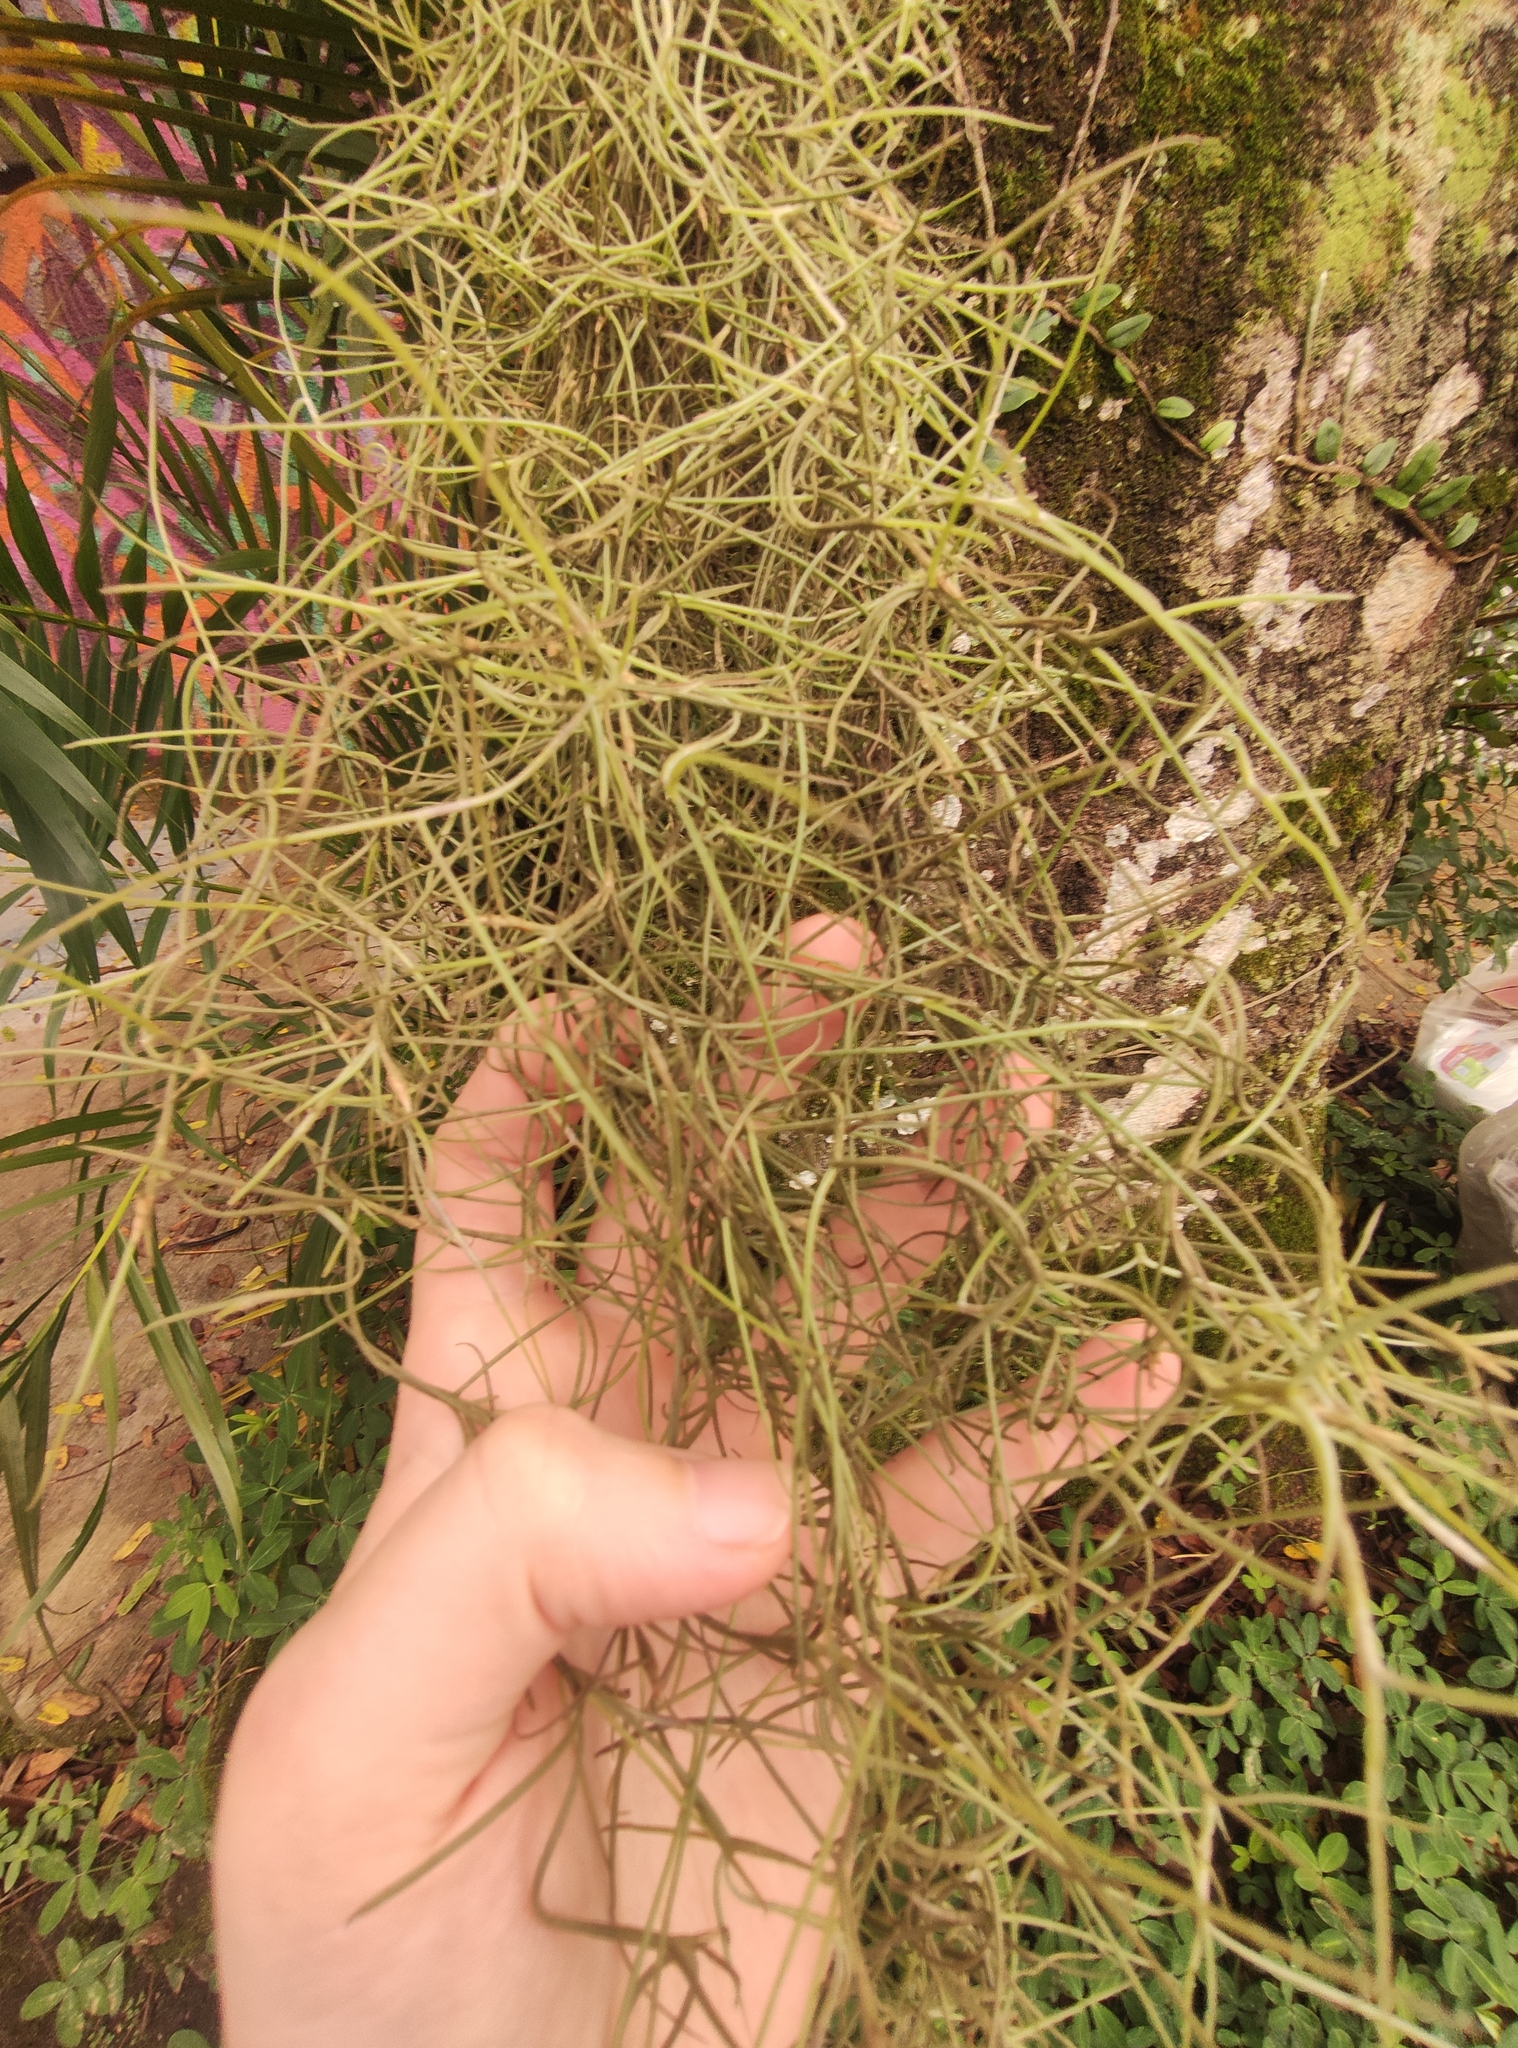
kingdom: Plantae
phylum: Tracheophyta
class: Liliopsida
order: Poales
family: Bromeliaceae
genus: Tillandsia
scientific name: Tillandsia usneoides
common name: Spanish moss
